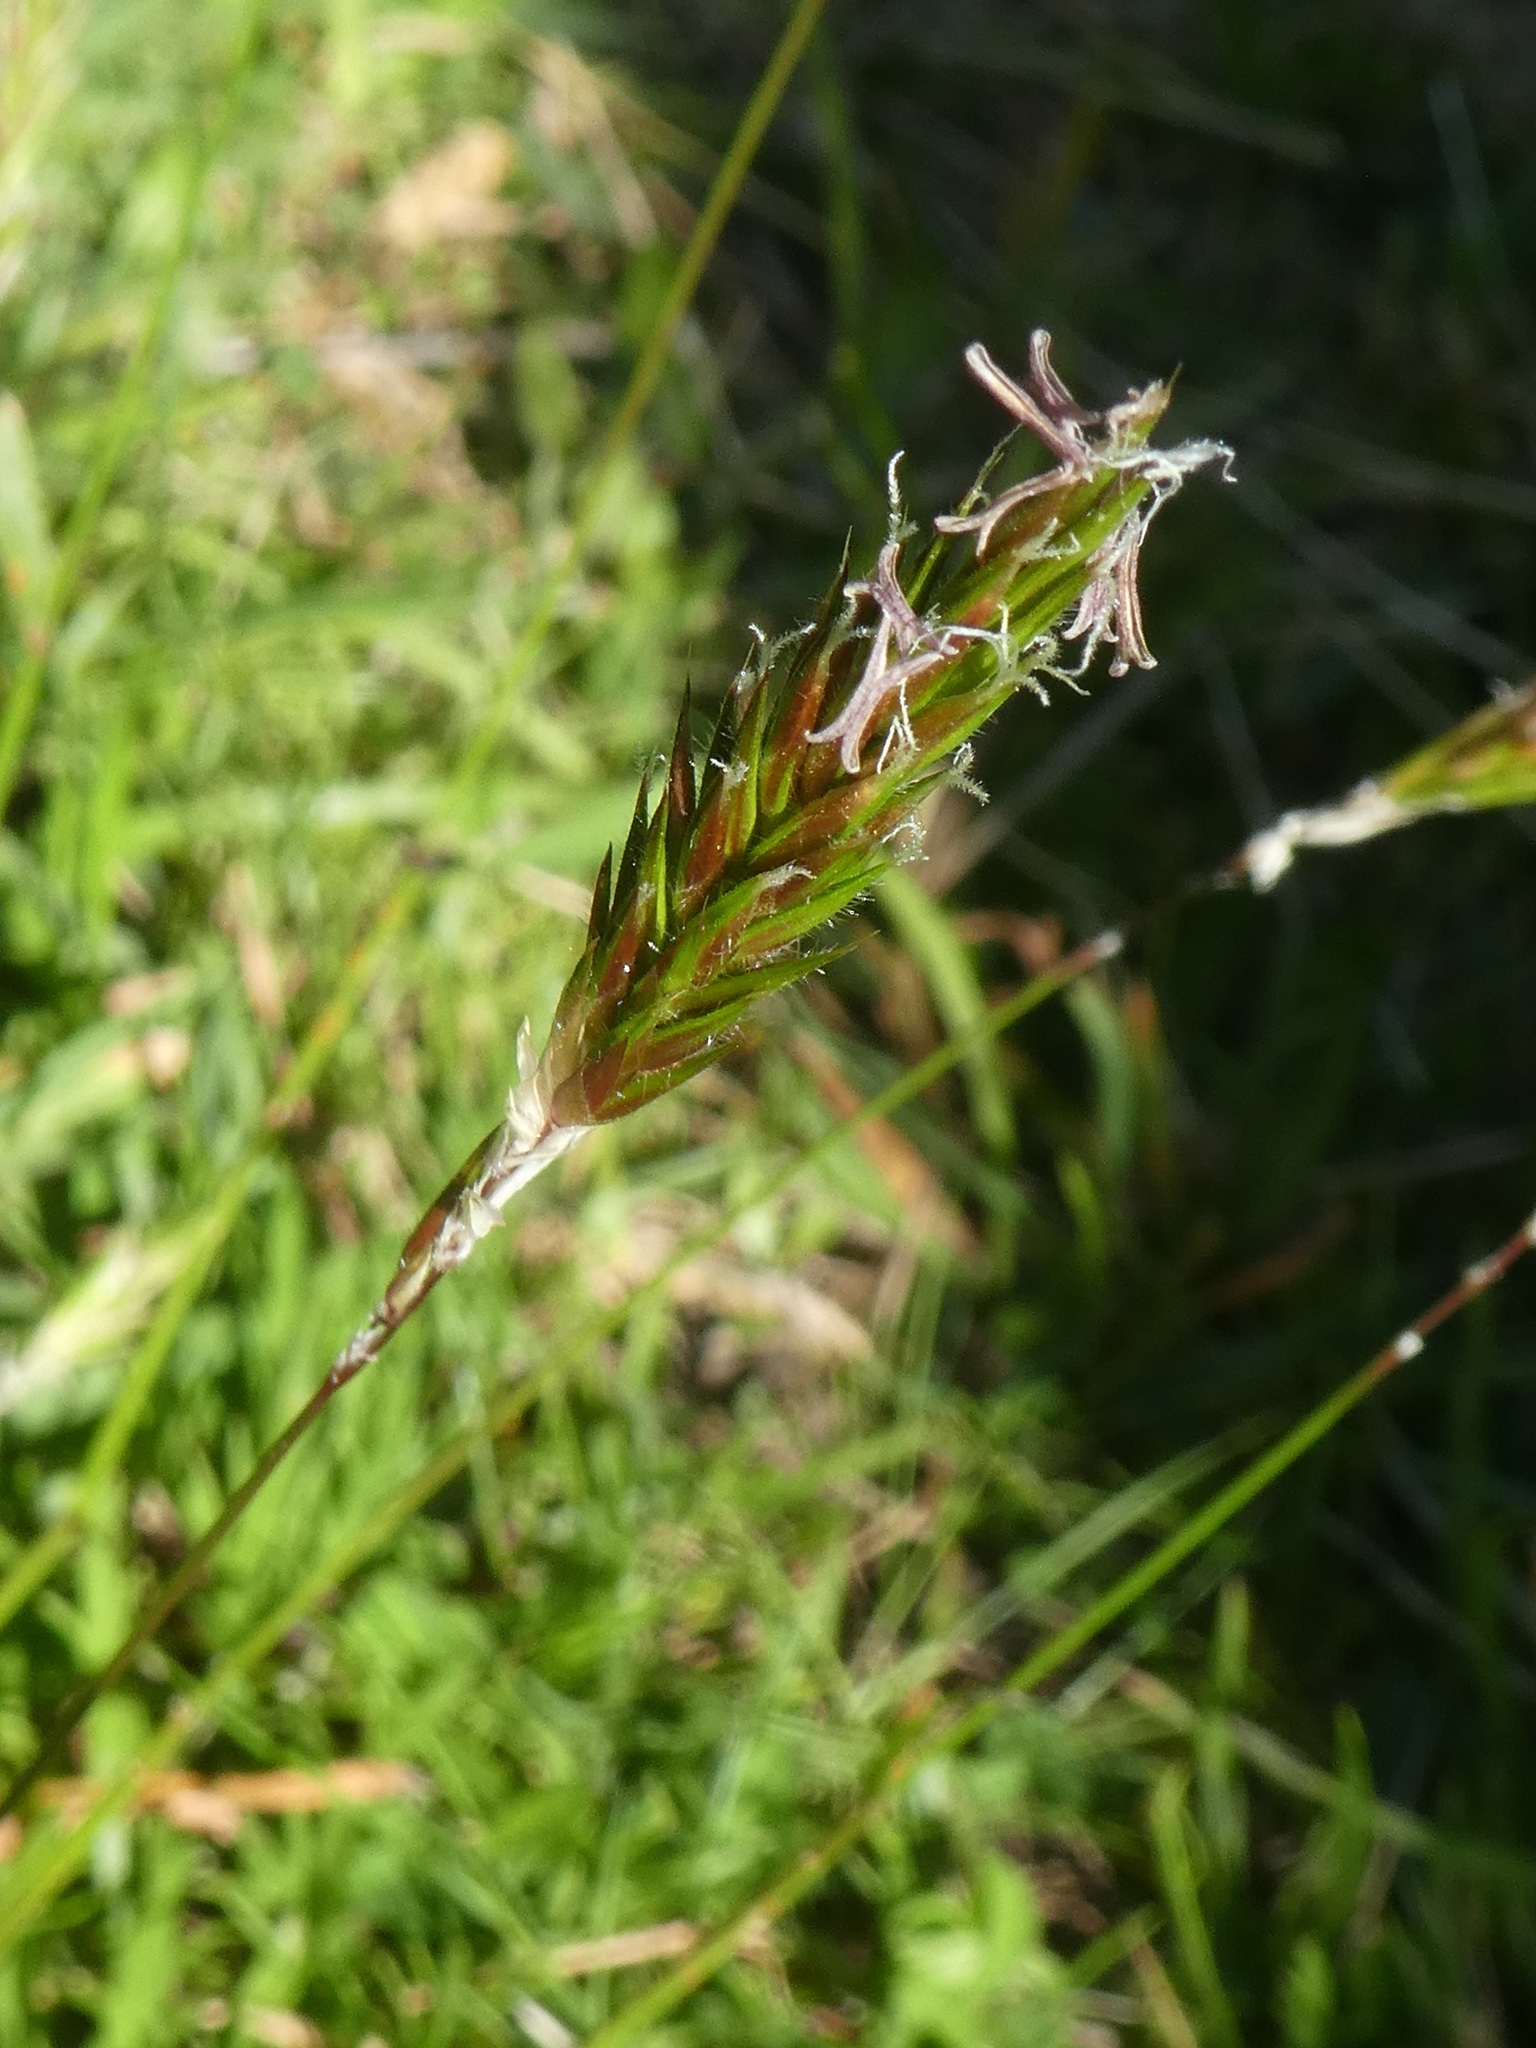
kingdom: Plantae
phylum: Tracheophyta
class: Liliopsida
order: Poales
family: Poaceae
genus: Anthoxanthum
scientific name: Anthoxanthum odoratum
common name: Sweet vernalgrass
